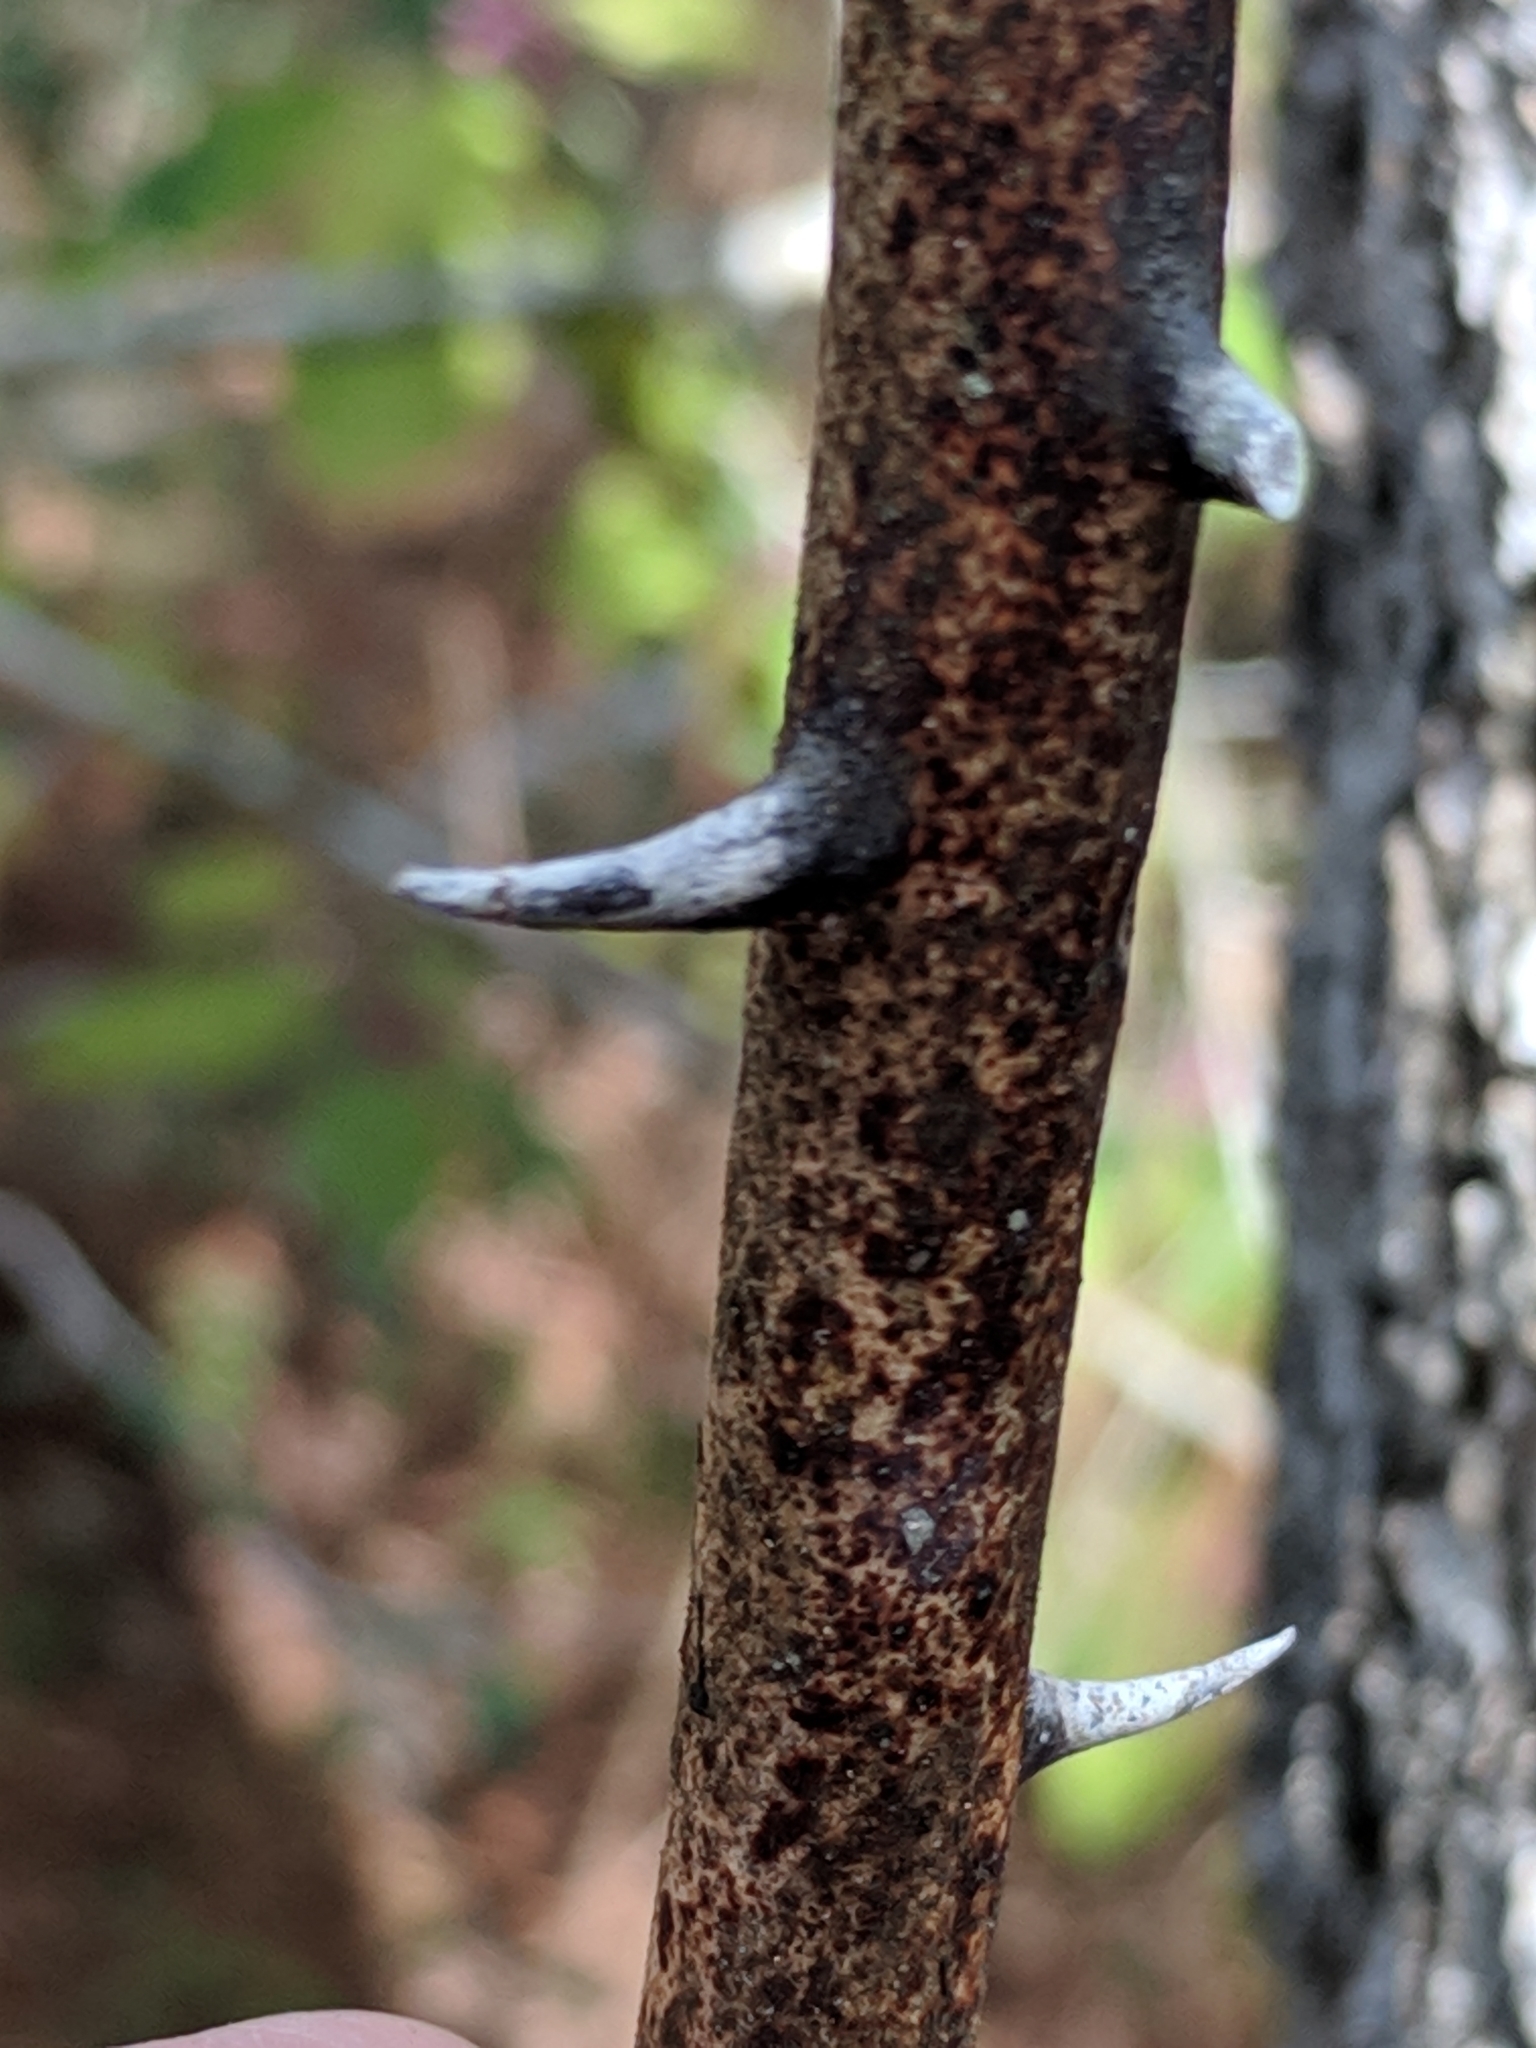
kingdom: Plantae
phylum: Tracheophyta
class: Liliopsida
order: Liliales
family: Smilacaceae
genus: Smilax
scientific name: Smilax maritima
